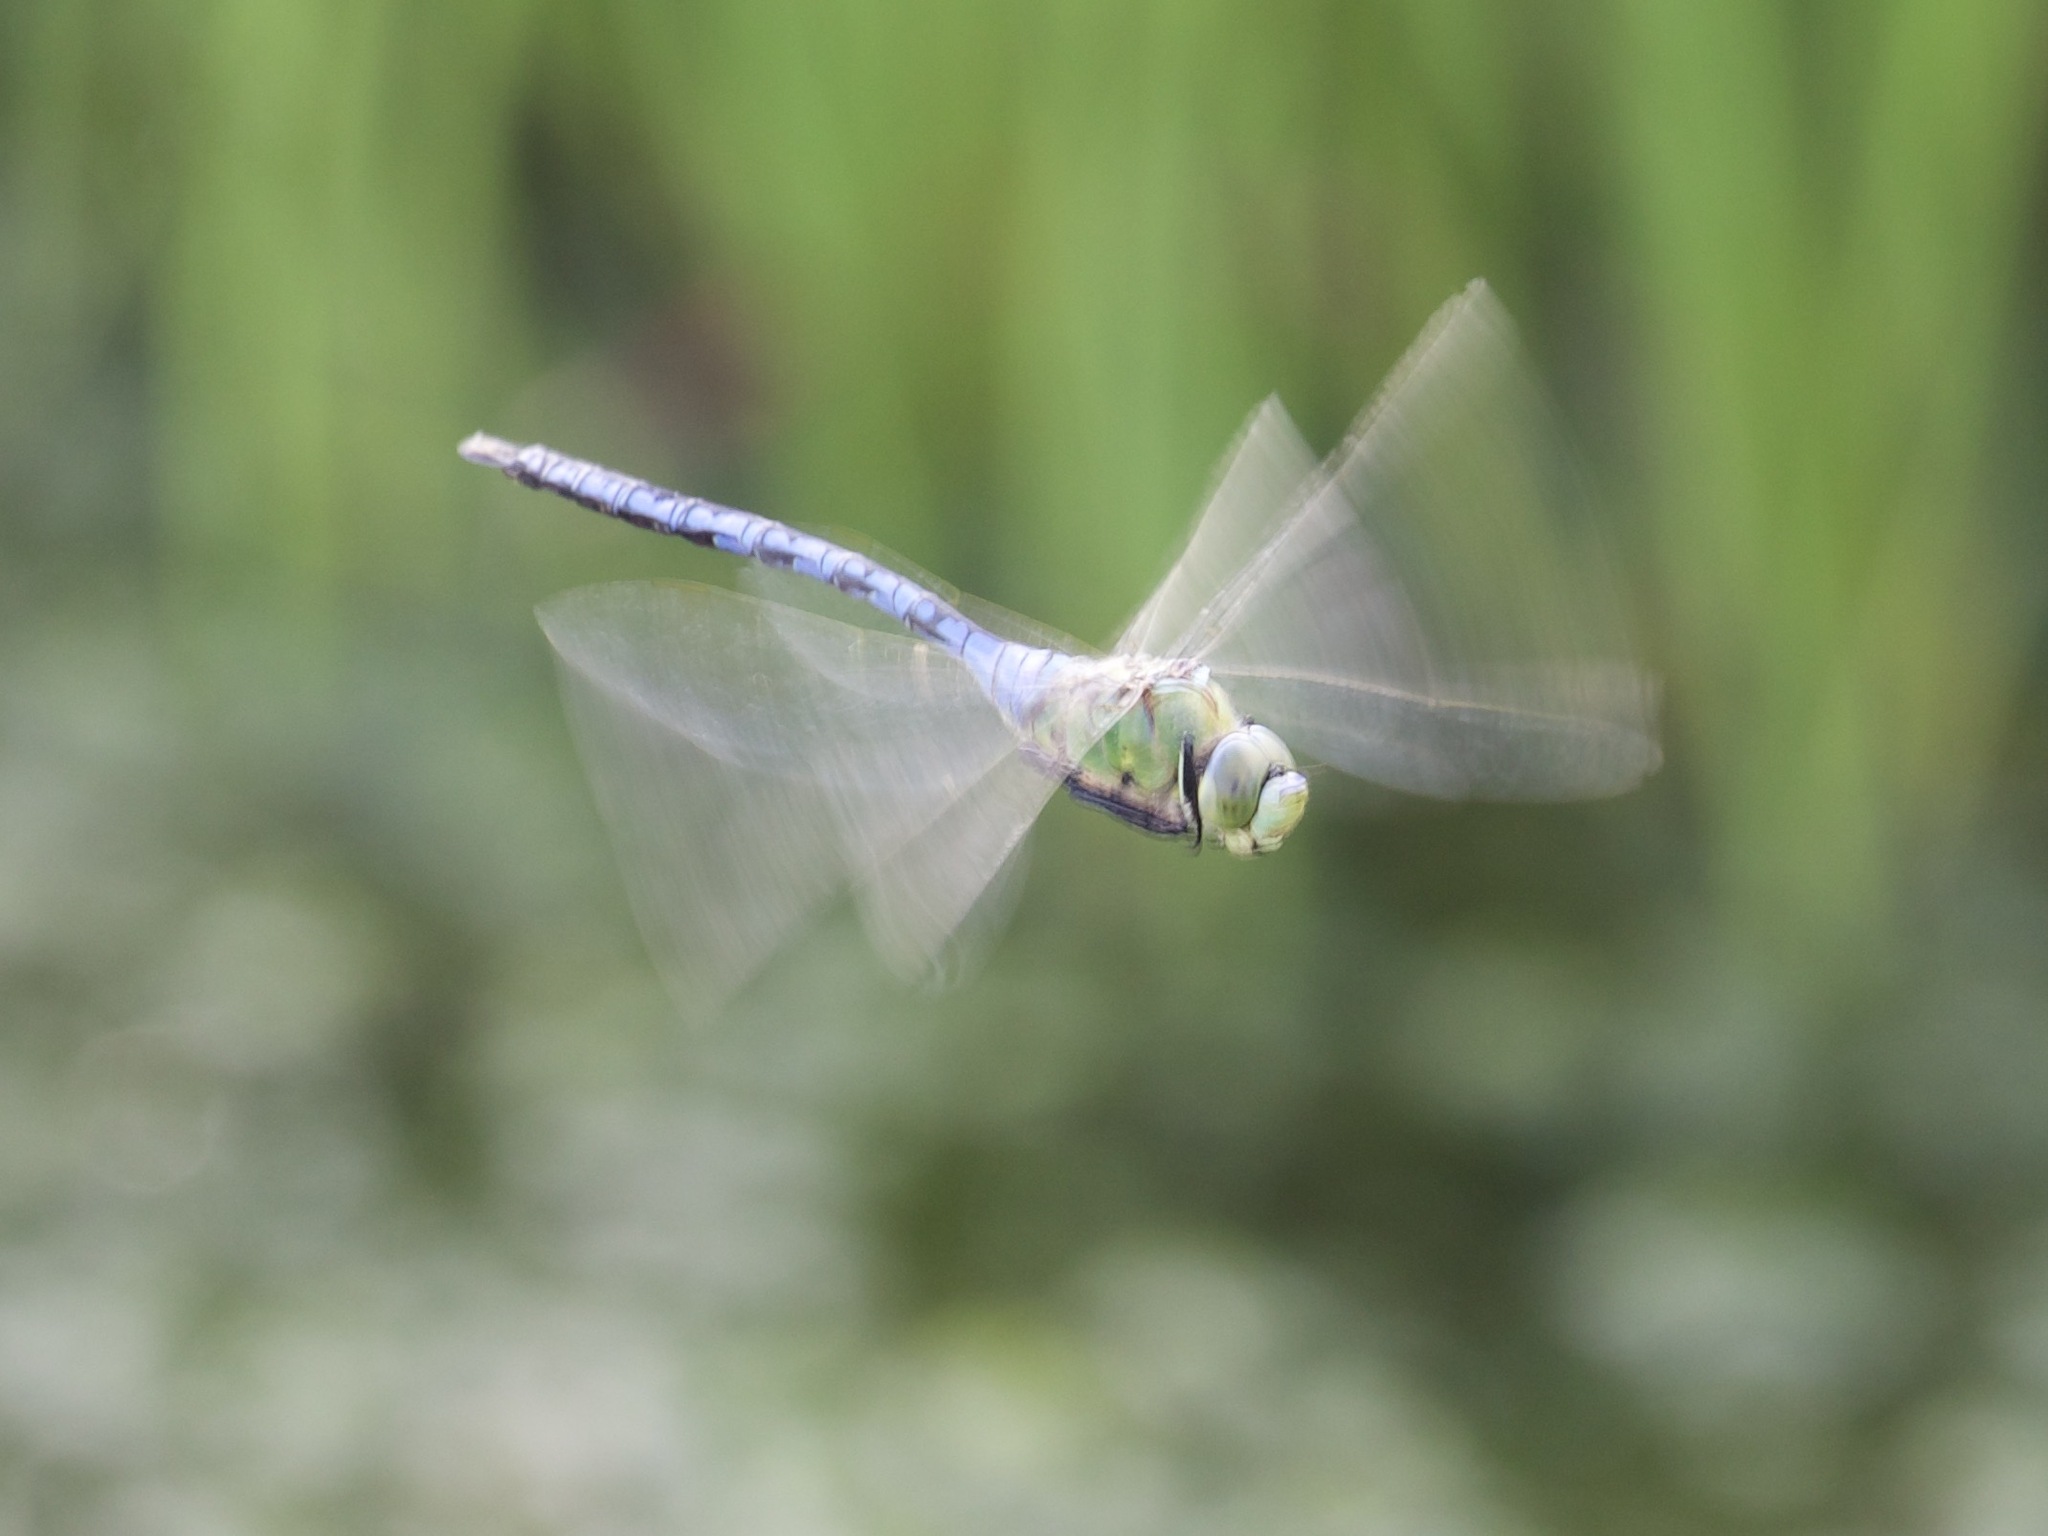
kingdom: Animalia
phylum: Arthropoda
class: Insecta
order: Odonata
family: Aeshnidae
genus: Anax
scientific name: Anax imperator
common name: Emperor dragonfly
